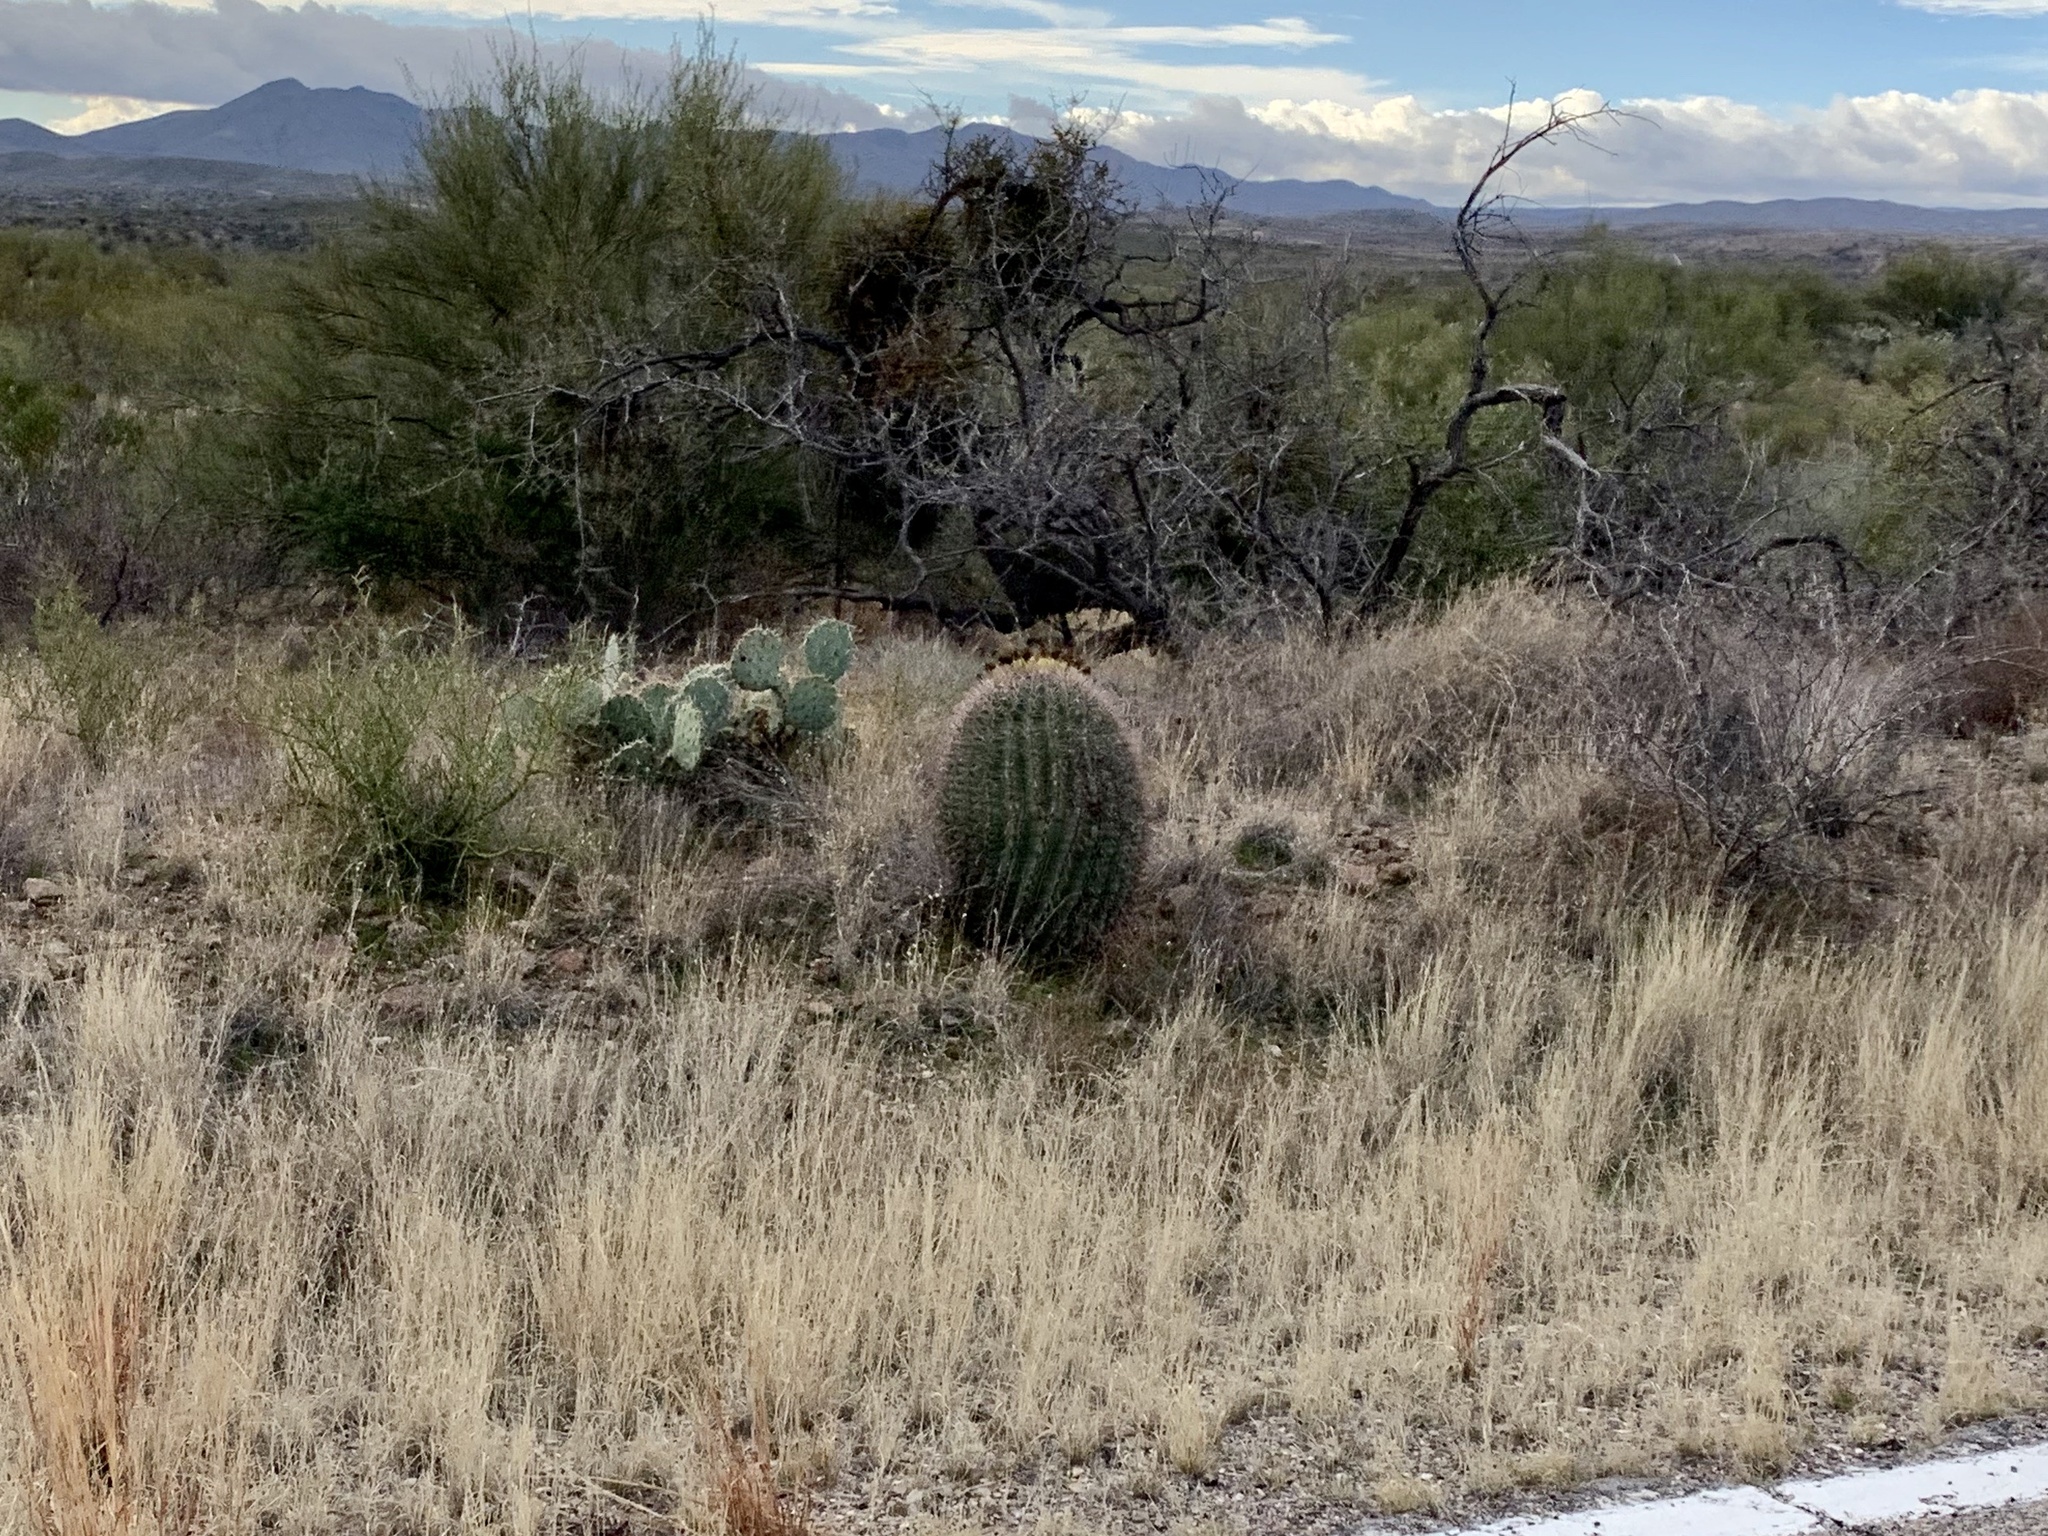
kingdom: Plantae
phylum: Tracheophyta
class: Magnoliopsida
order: Caryophyllales
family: Cactaceae
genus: Ferocactus
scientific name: Ferocactus wislizeni
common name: Candy barrel cactus
